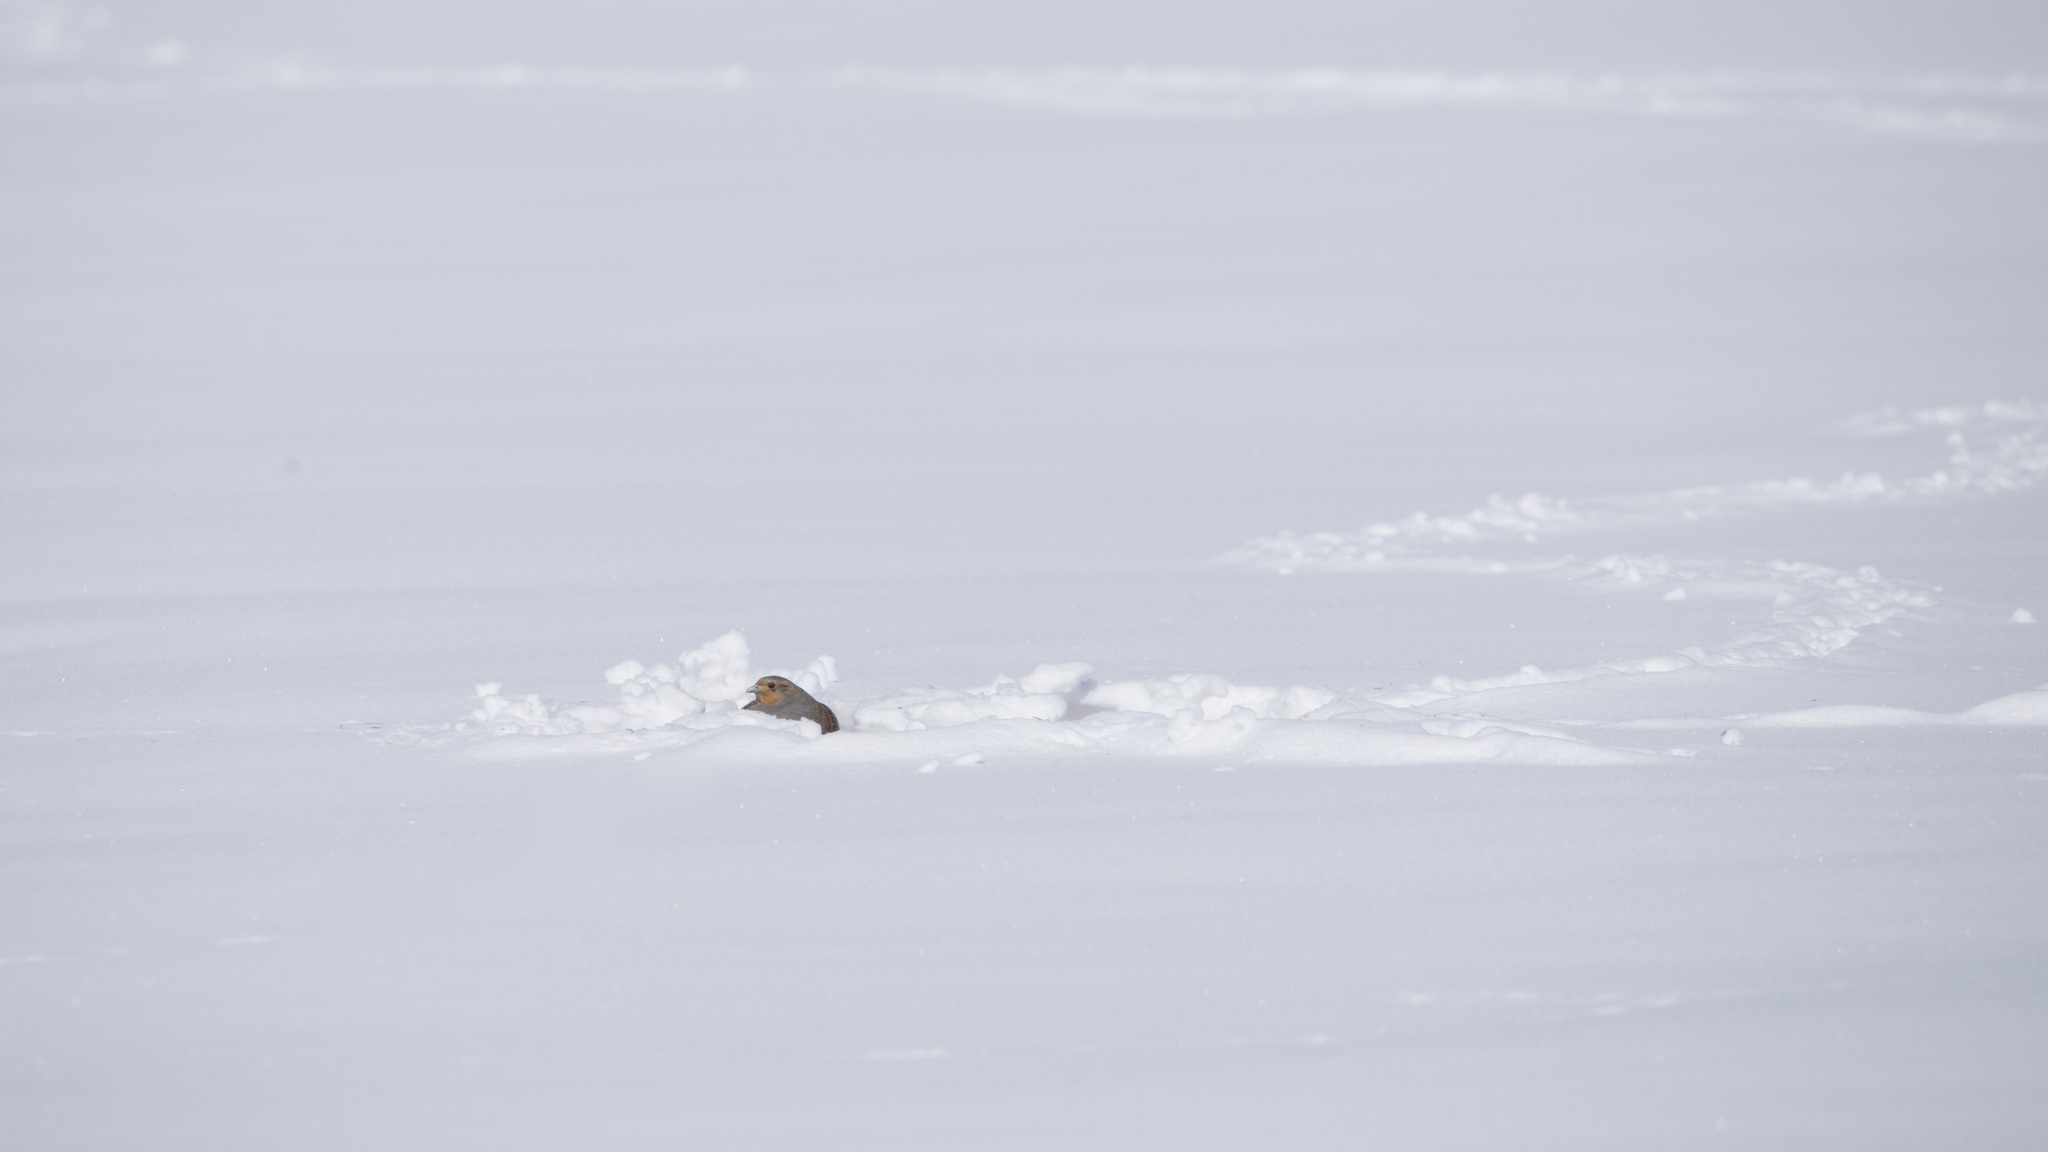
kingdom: Animalia
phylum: Chordata
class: Aves
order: Galliformes
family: Phasianidae
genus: Perdix
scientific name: Perdix perdix
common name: Grey partridge
